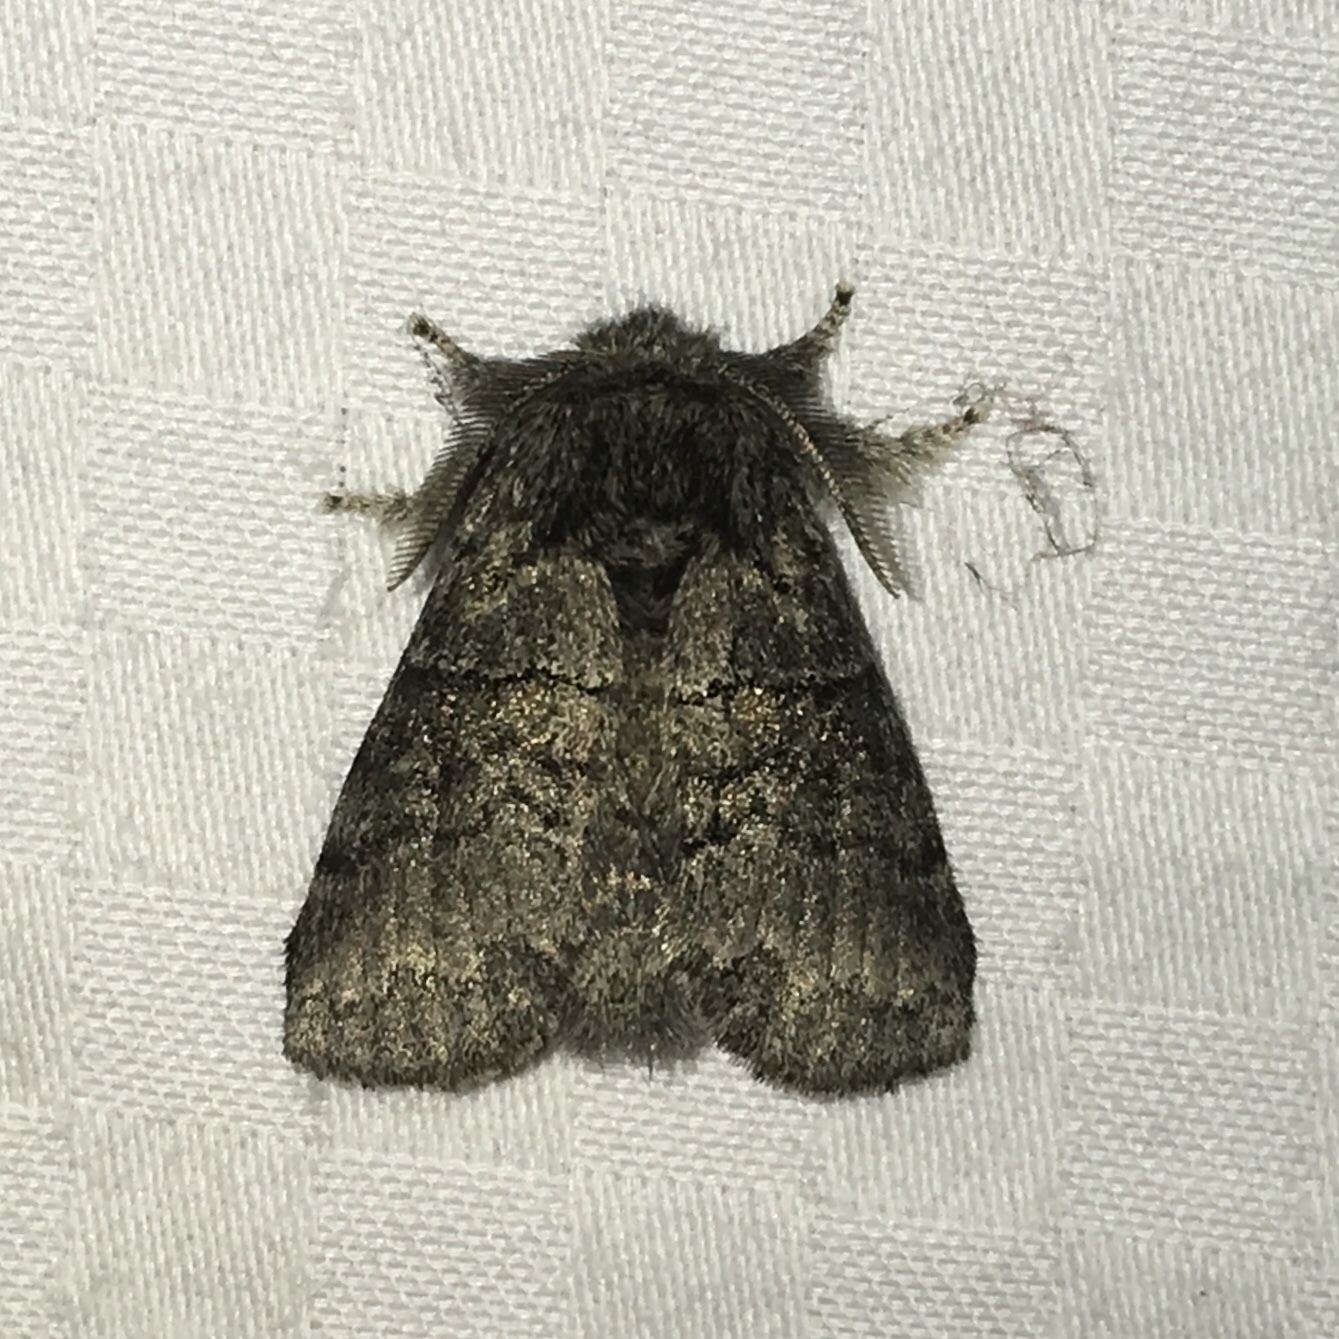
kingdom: Animalia
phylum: Arthropoda
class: Insecta
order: Lepidoptera
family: Notodontidae
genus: Gluphisia
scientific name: Gluphisia septentrionis
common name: Common gluphisia
